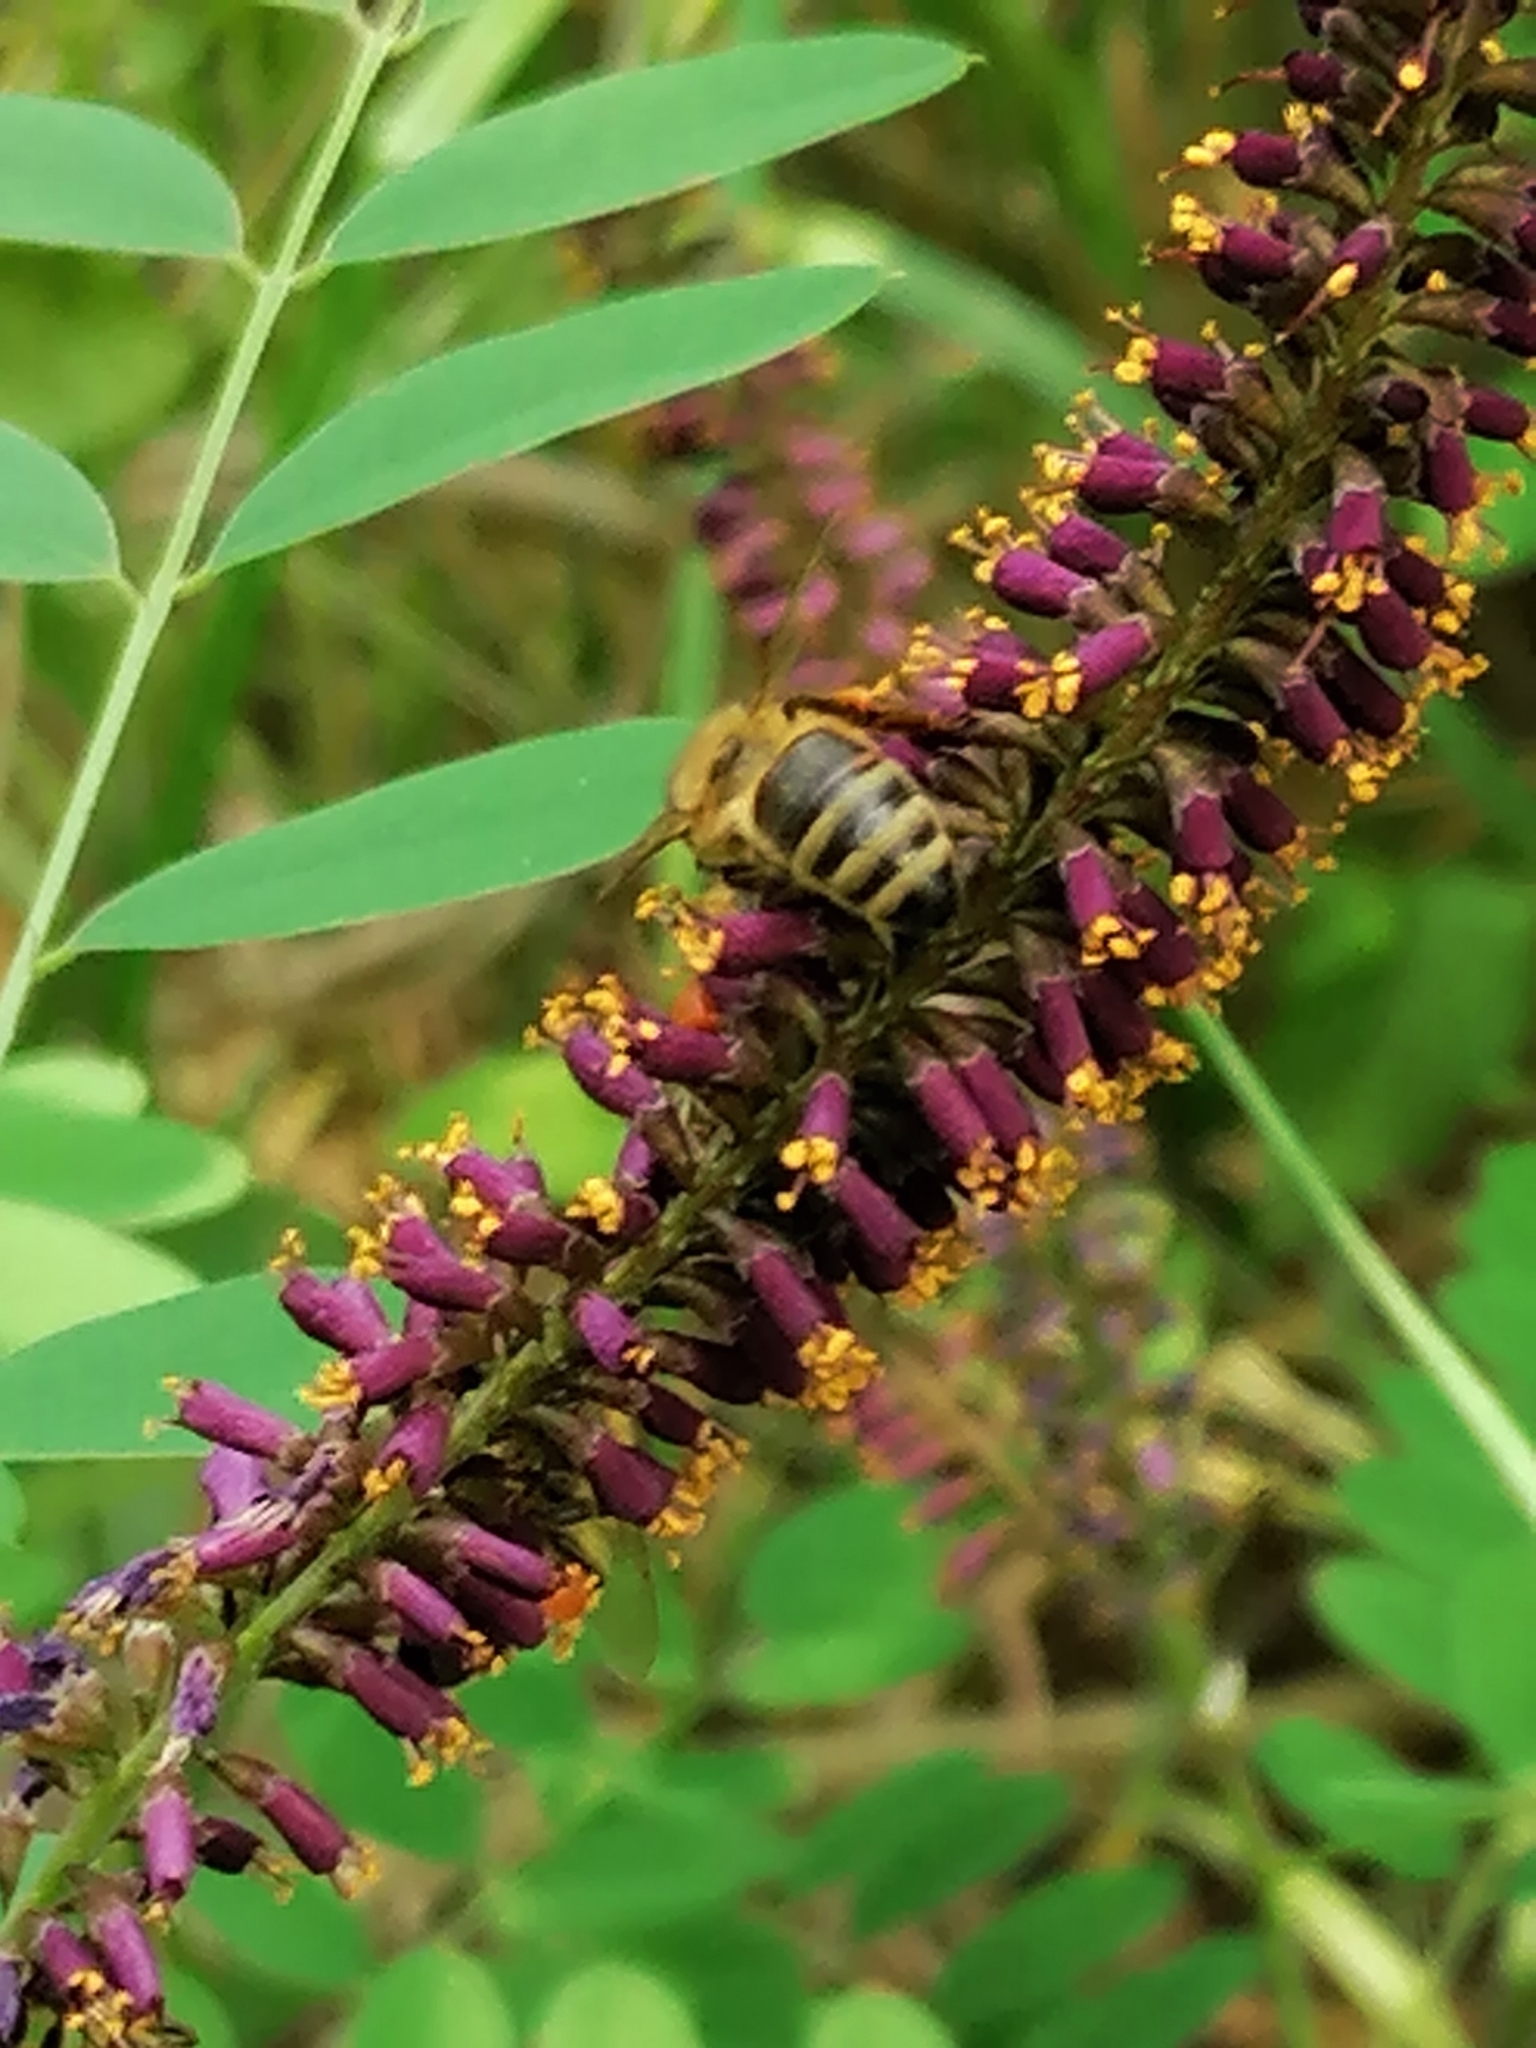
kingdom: Animalia
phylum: Arthropoda
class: Insecta
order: Hymenoptera
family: Apidae
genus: Apis
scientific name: Apis mellifera
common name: Honey bee
